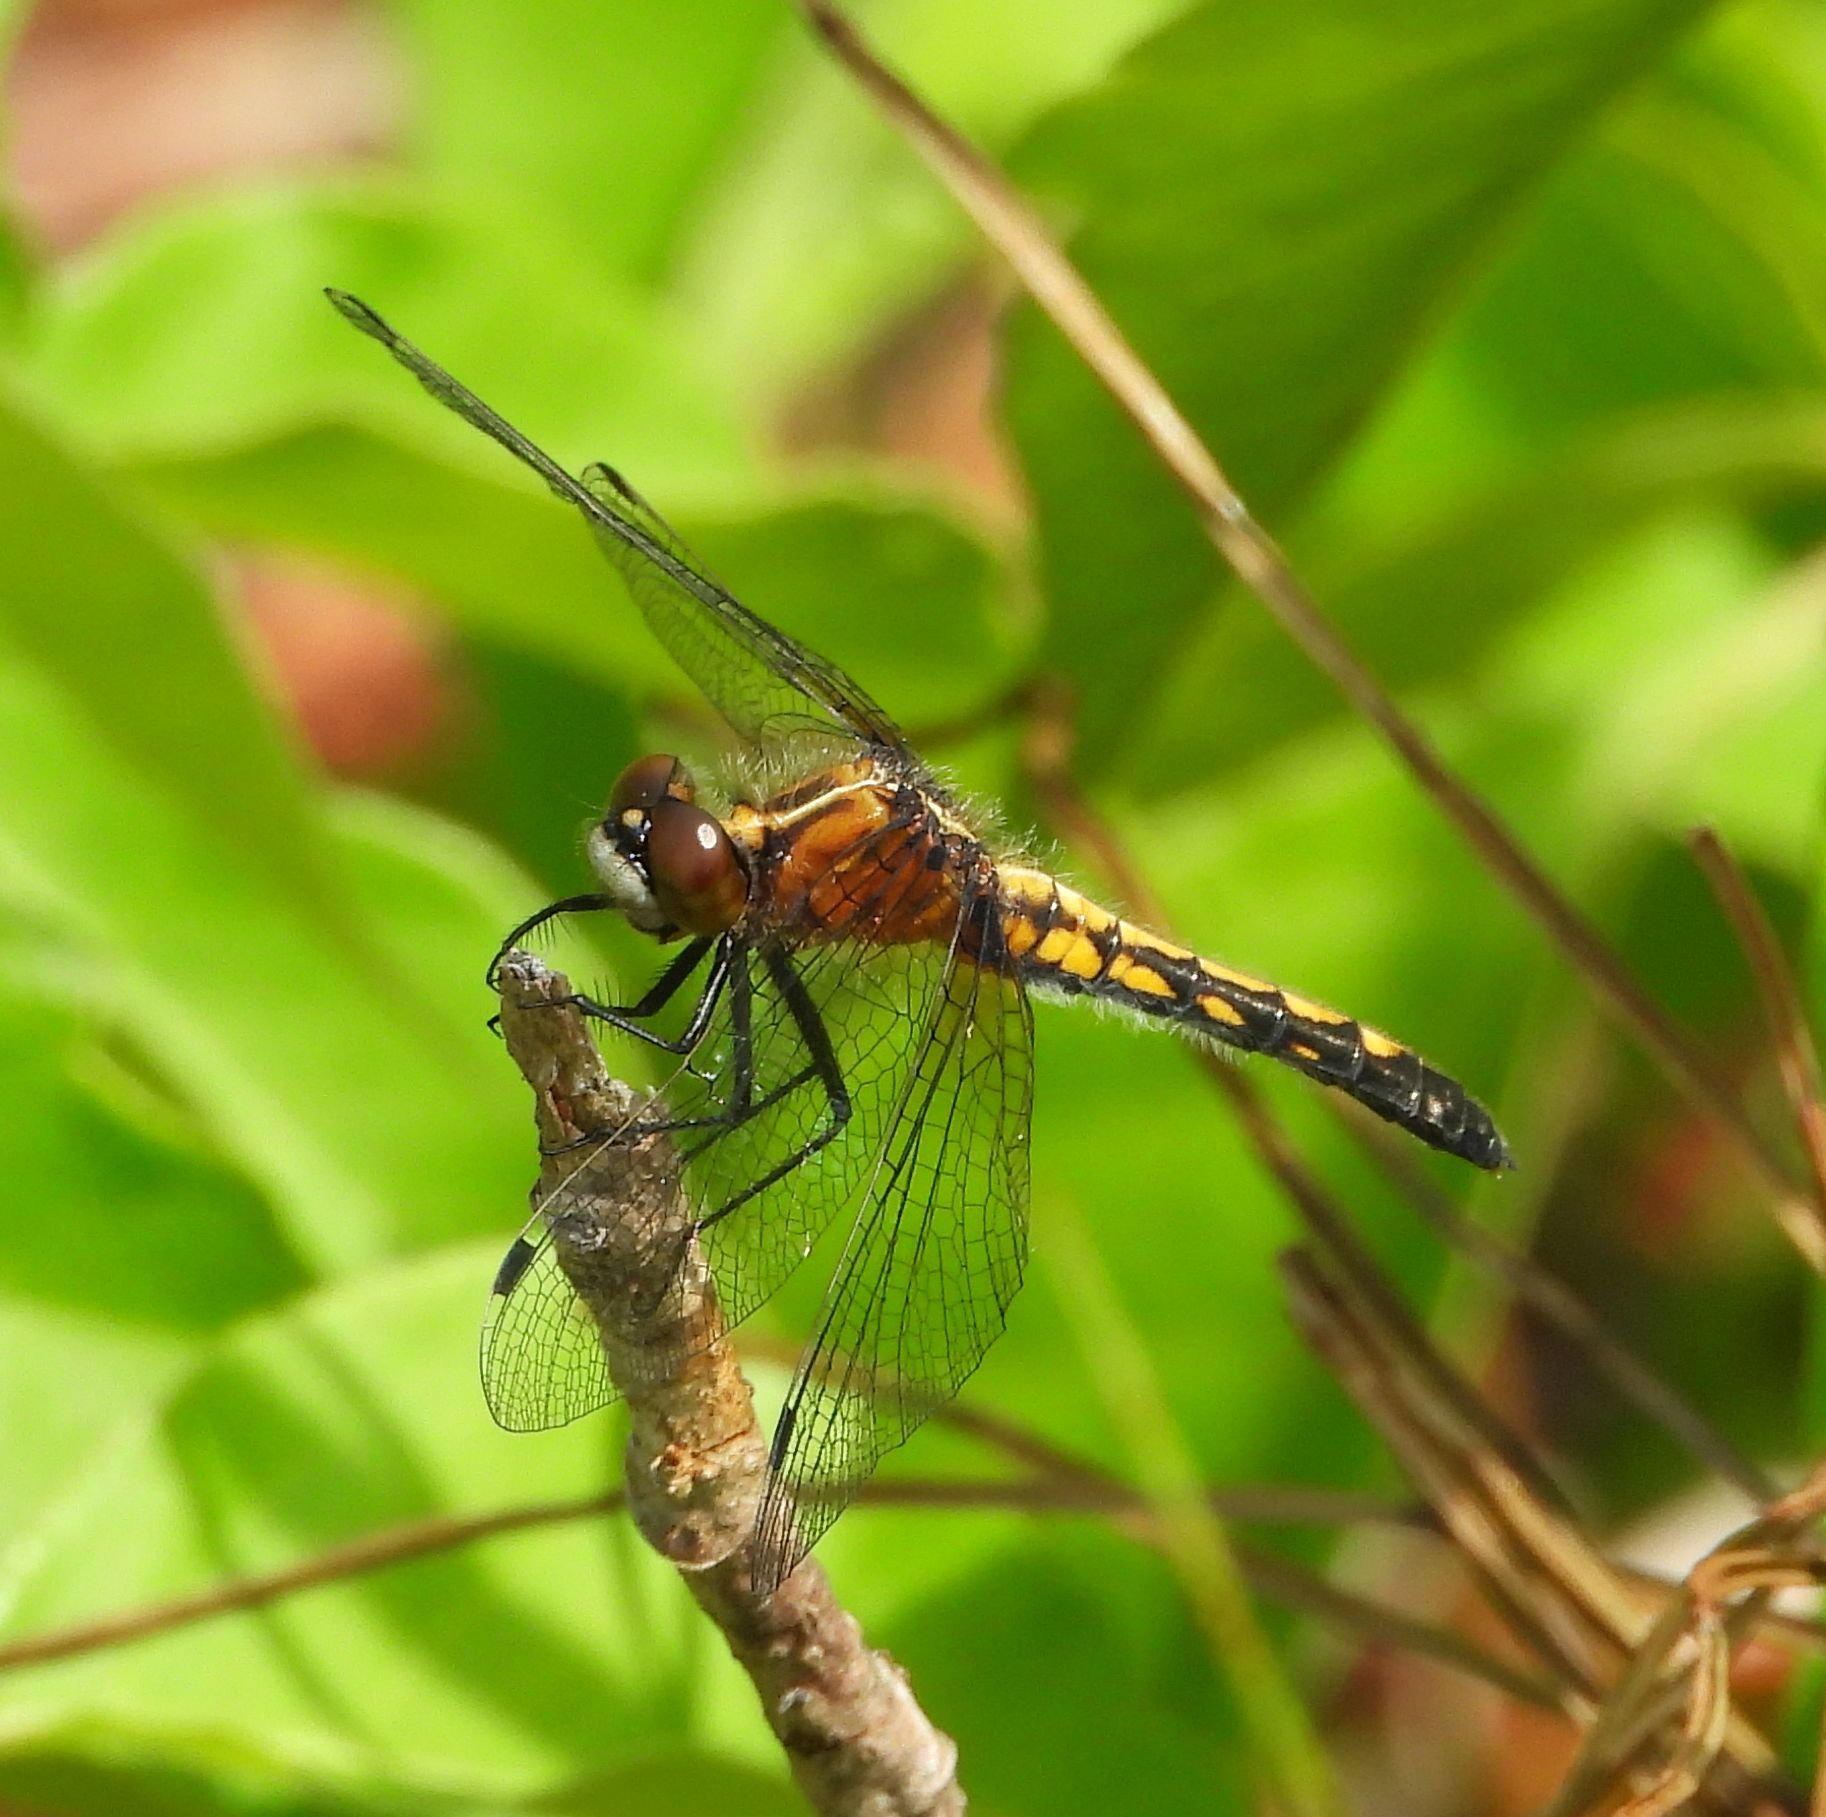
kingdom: Animalia
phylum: Arthropoda
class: Insecta
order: Odonata
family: Libellulidae
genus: Leucorrhinia
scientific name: Leucorrhinia intacta
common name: Dot-tailed whiteface
